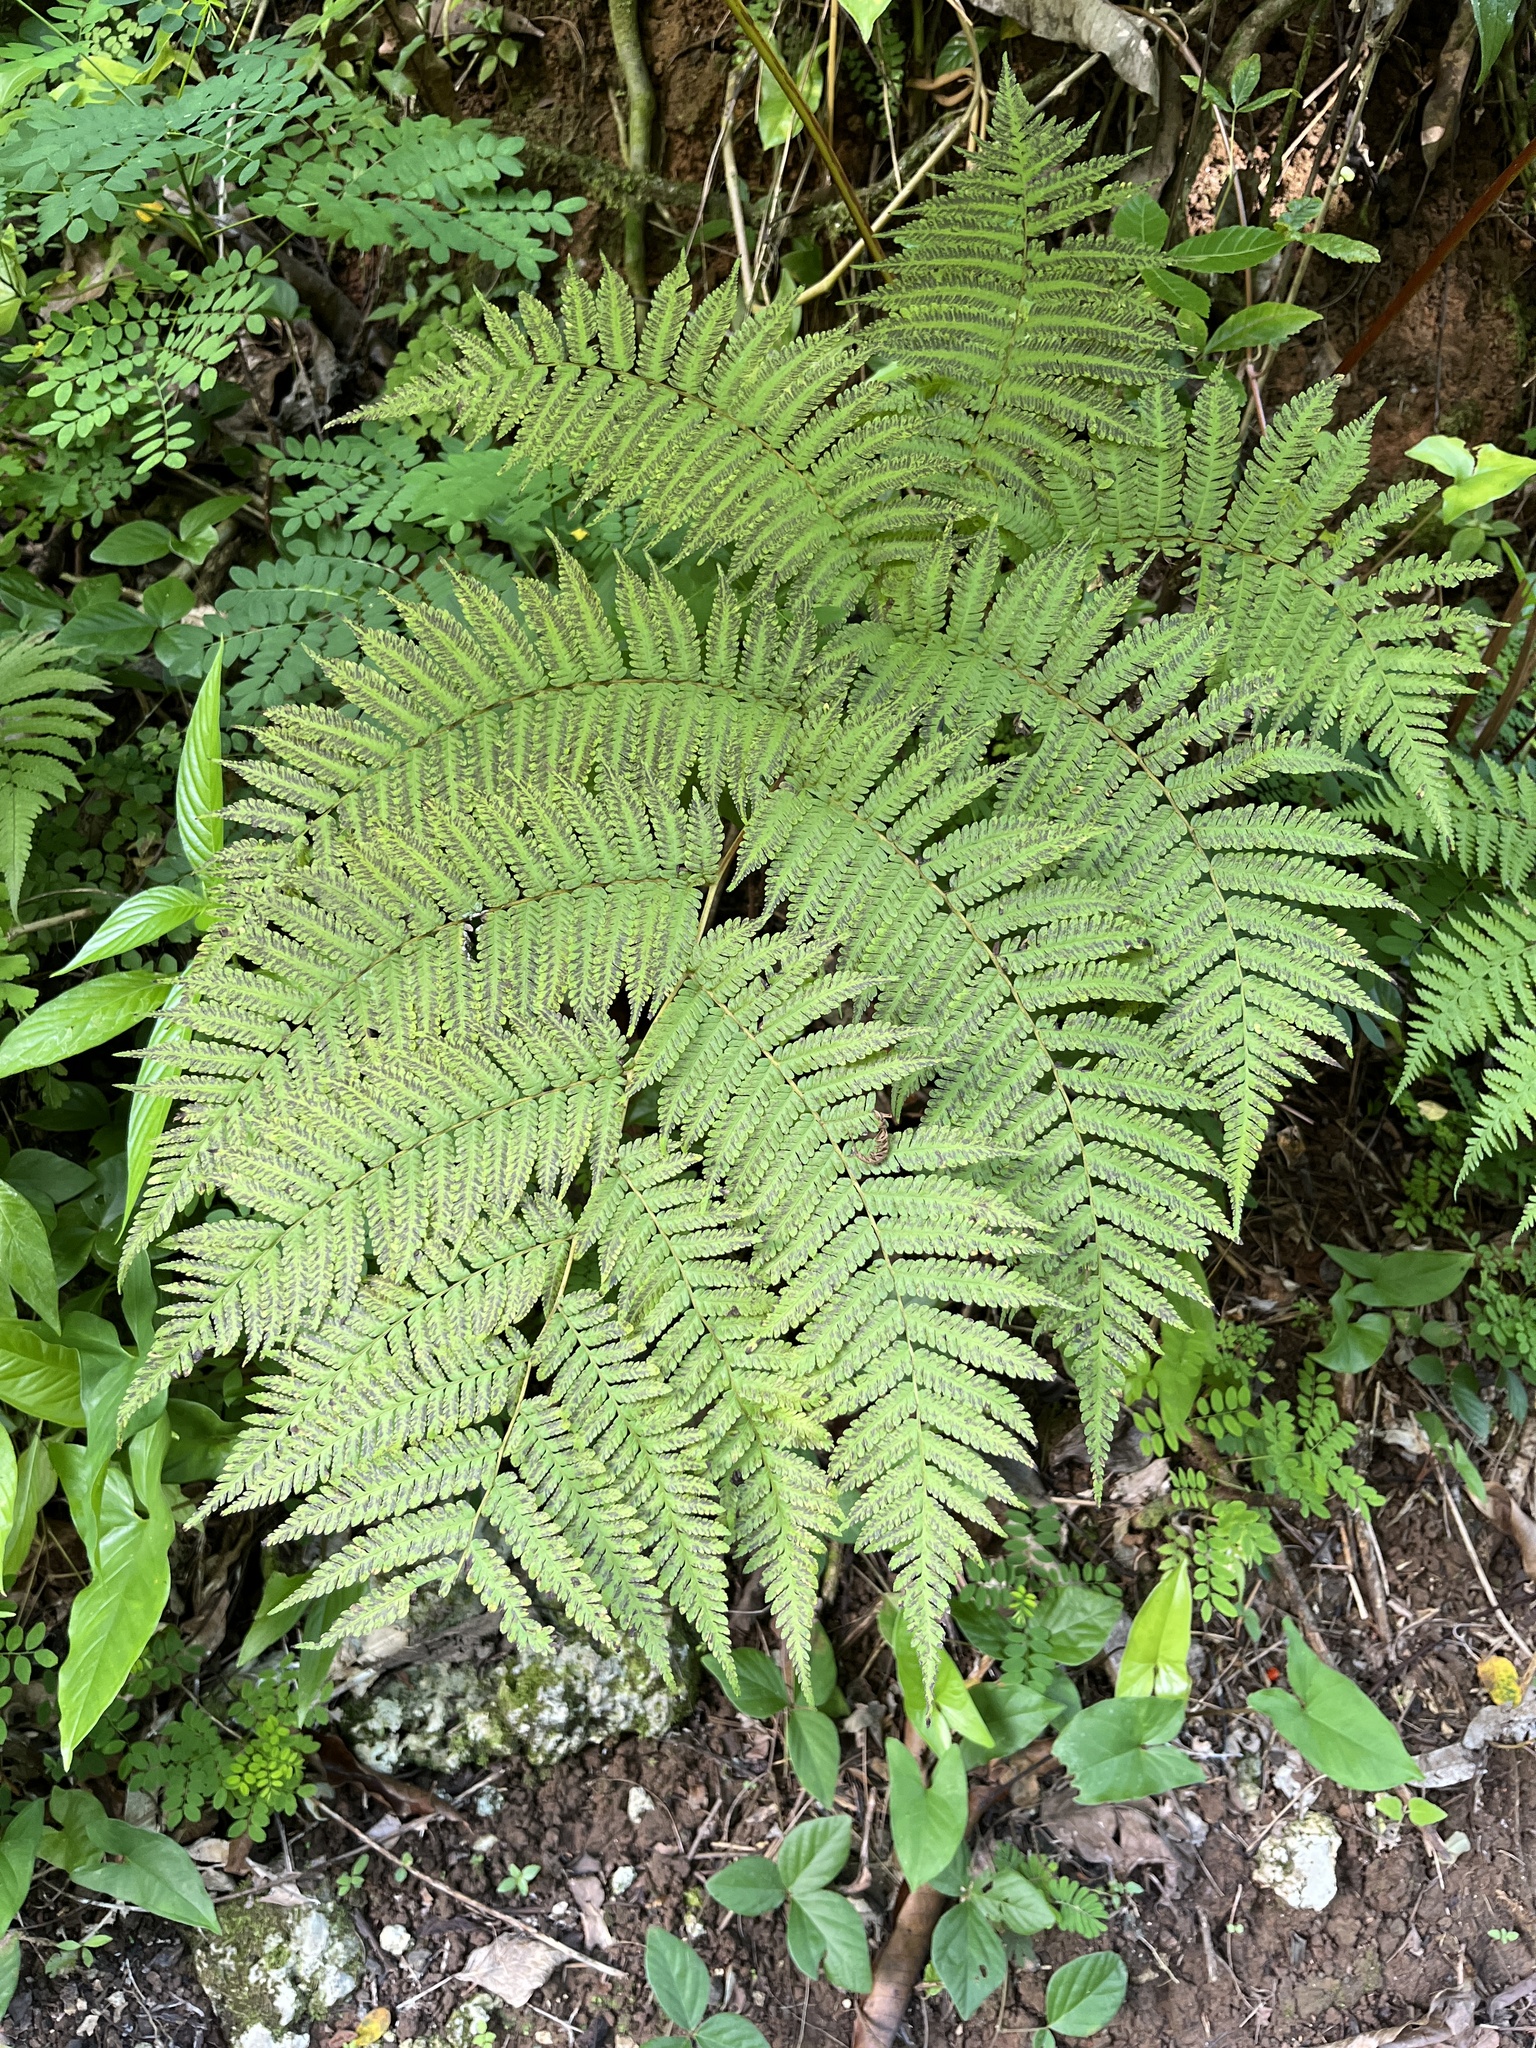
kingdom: Plantae
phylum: Tracheophyta
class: Polypodiopsida
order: Cyatheales
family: Cyatheaceae
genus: Cyathea
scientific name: Cyathea arborea
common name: West indian treefern
